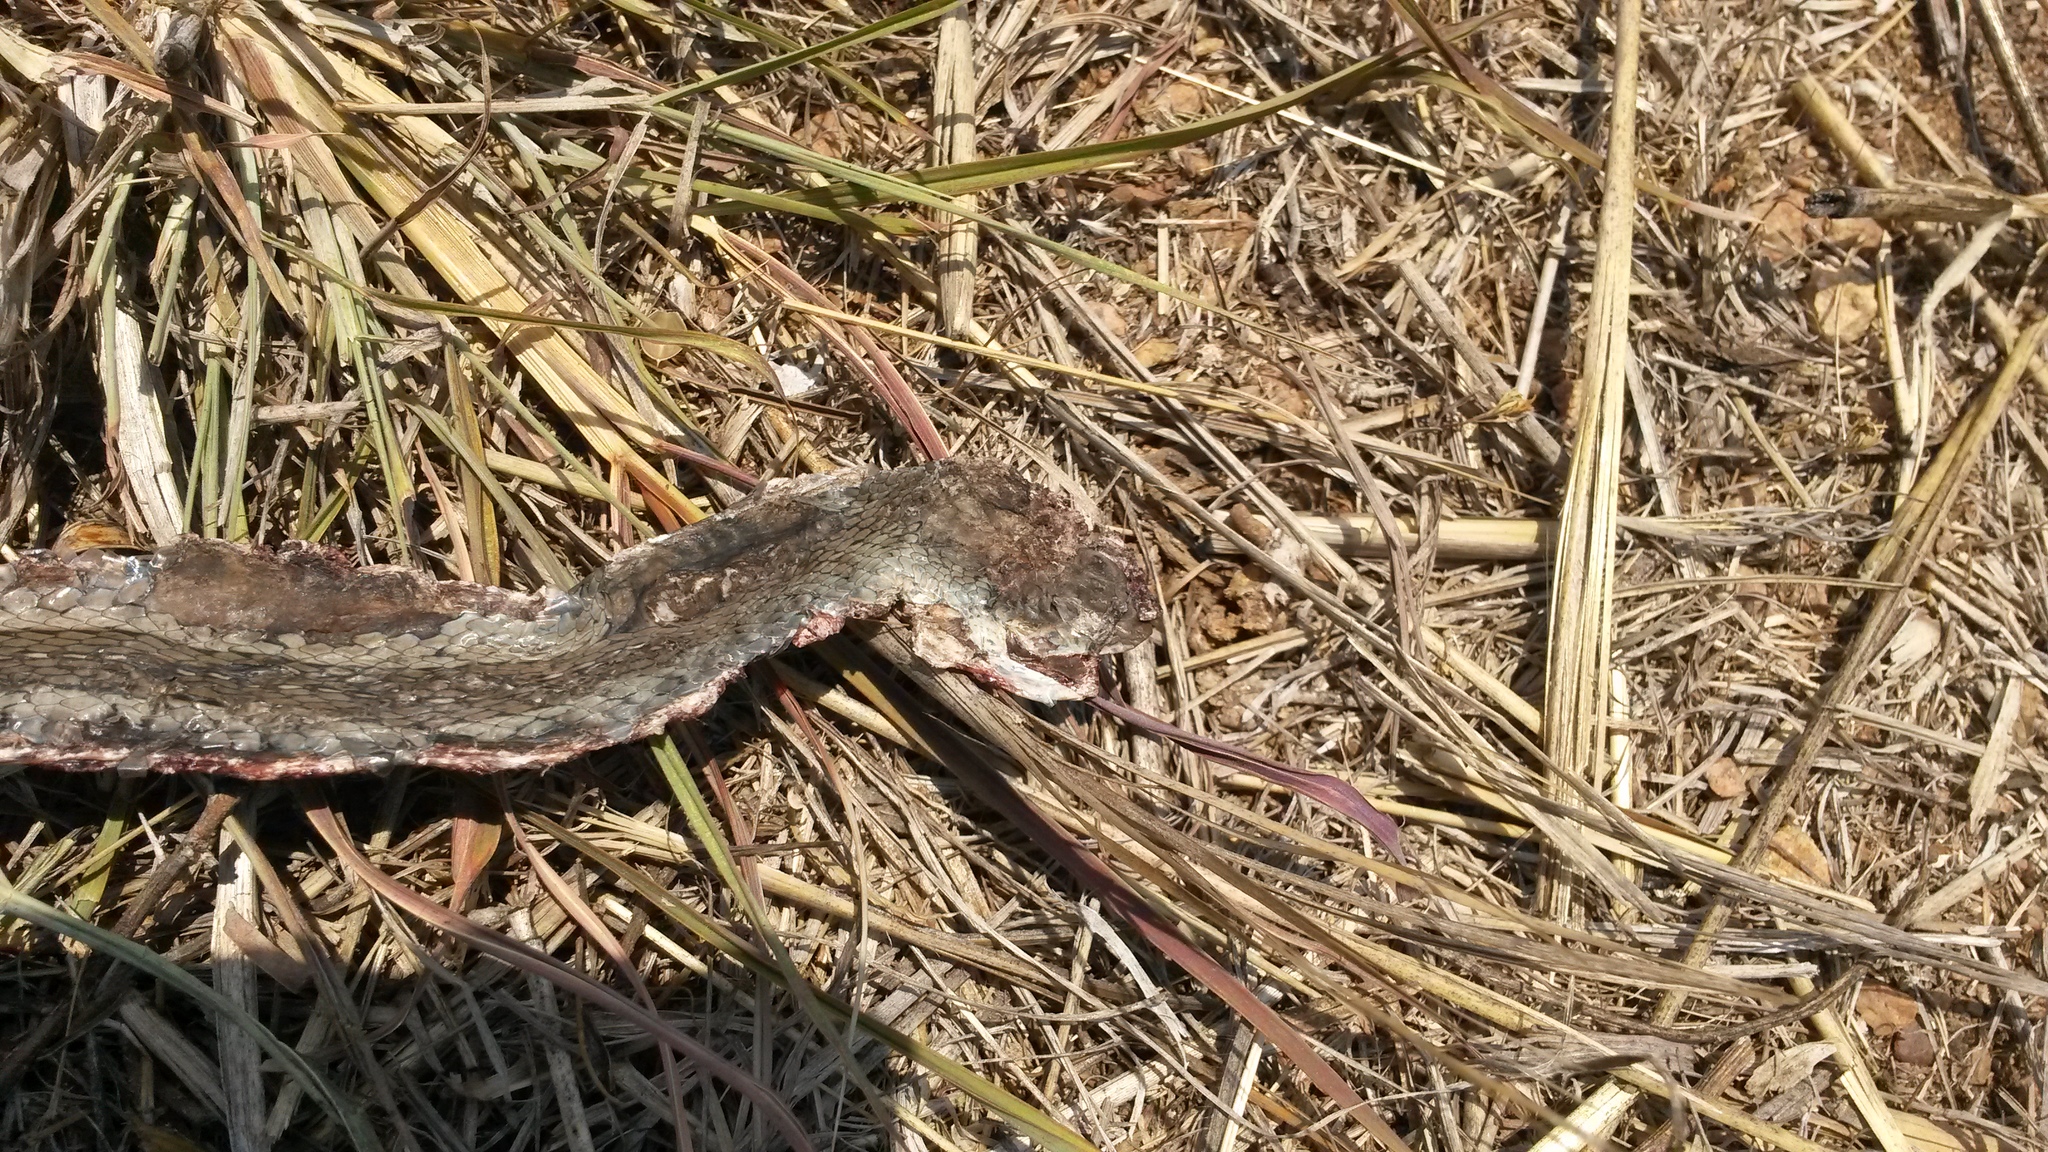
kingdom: Animalia
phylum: Chordata
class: Squamata
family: Psammophiidae
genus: Psammophis
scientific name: Psammophis brevirostris
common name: Short-snouted grass snake
